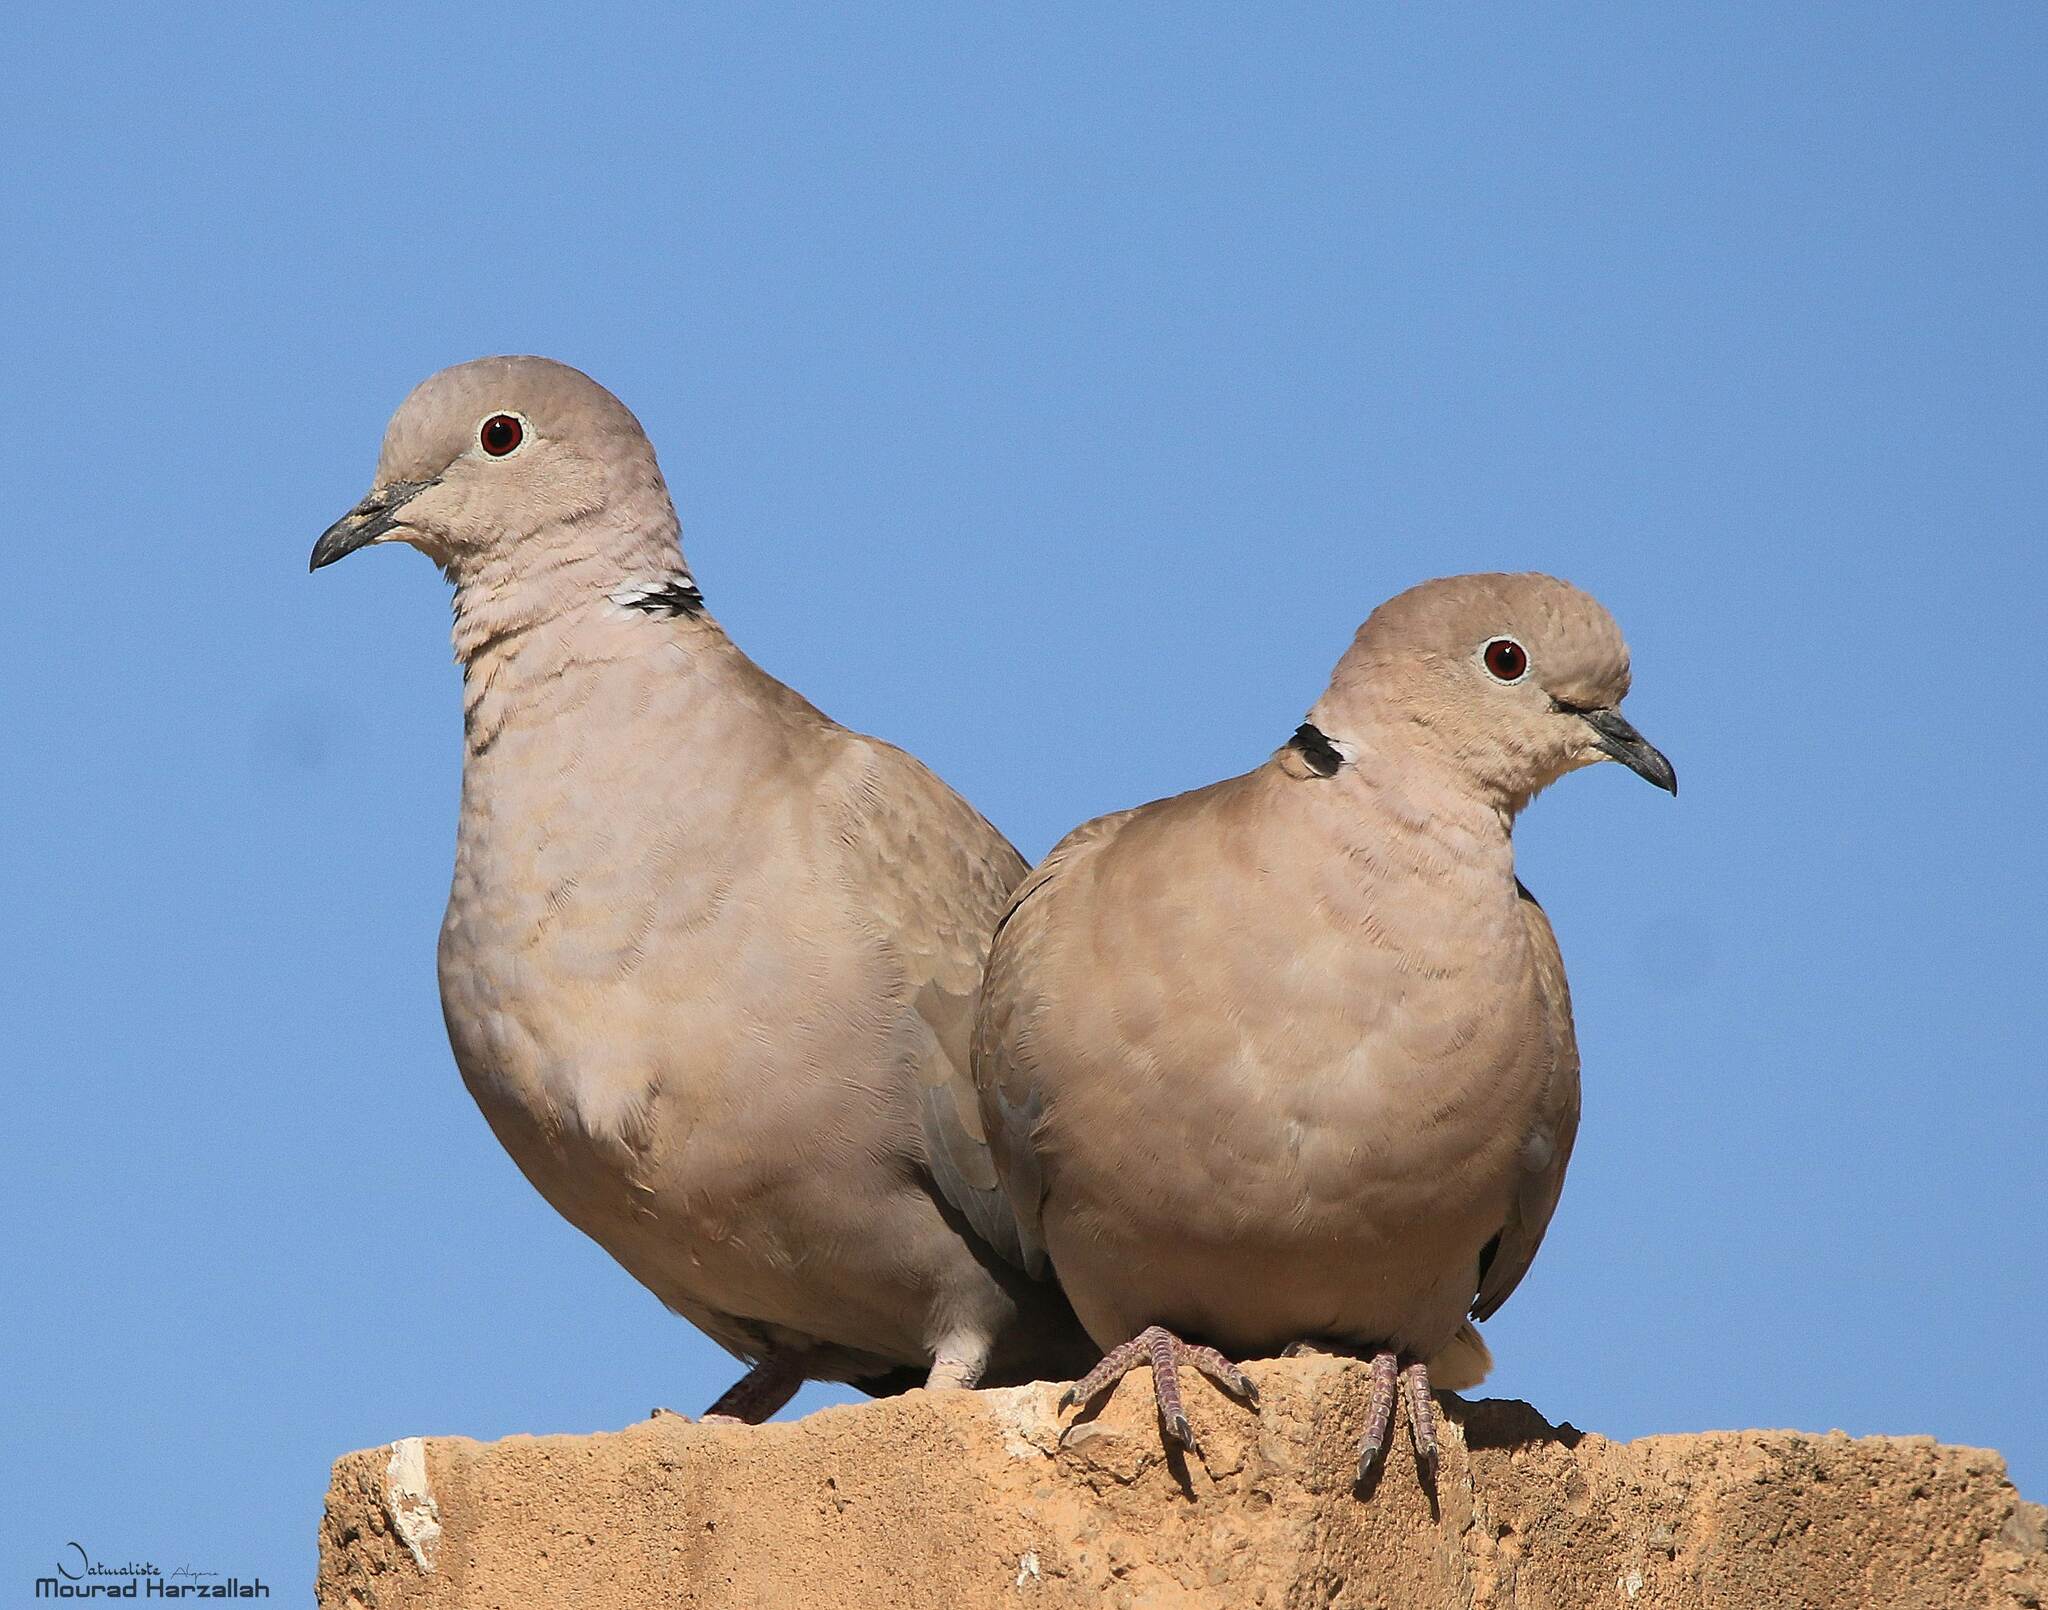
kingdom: Animalia
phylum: Chordata
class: Aves
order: Columbiformes
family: Columbidae
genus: Streptopelia
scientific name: Streptopelia decaocto
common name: Eurasian collared dove
